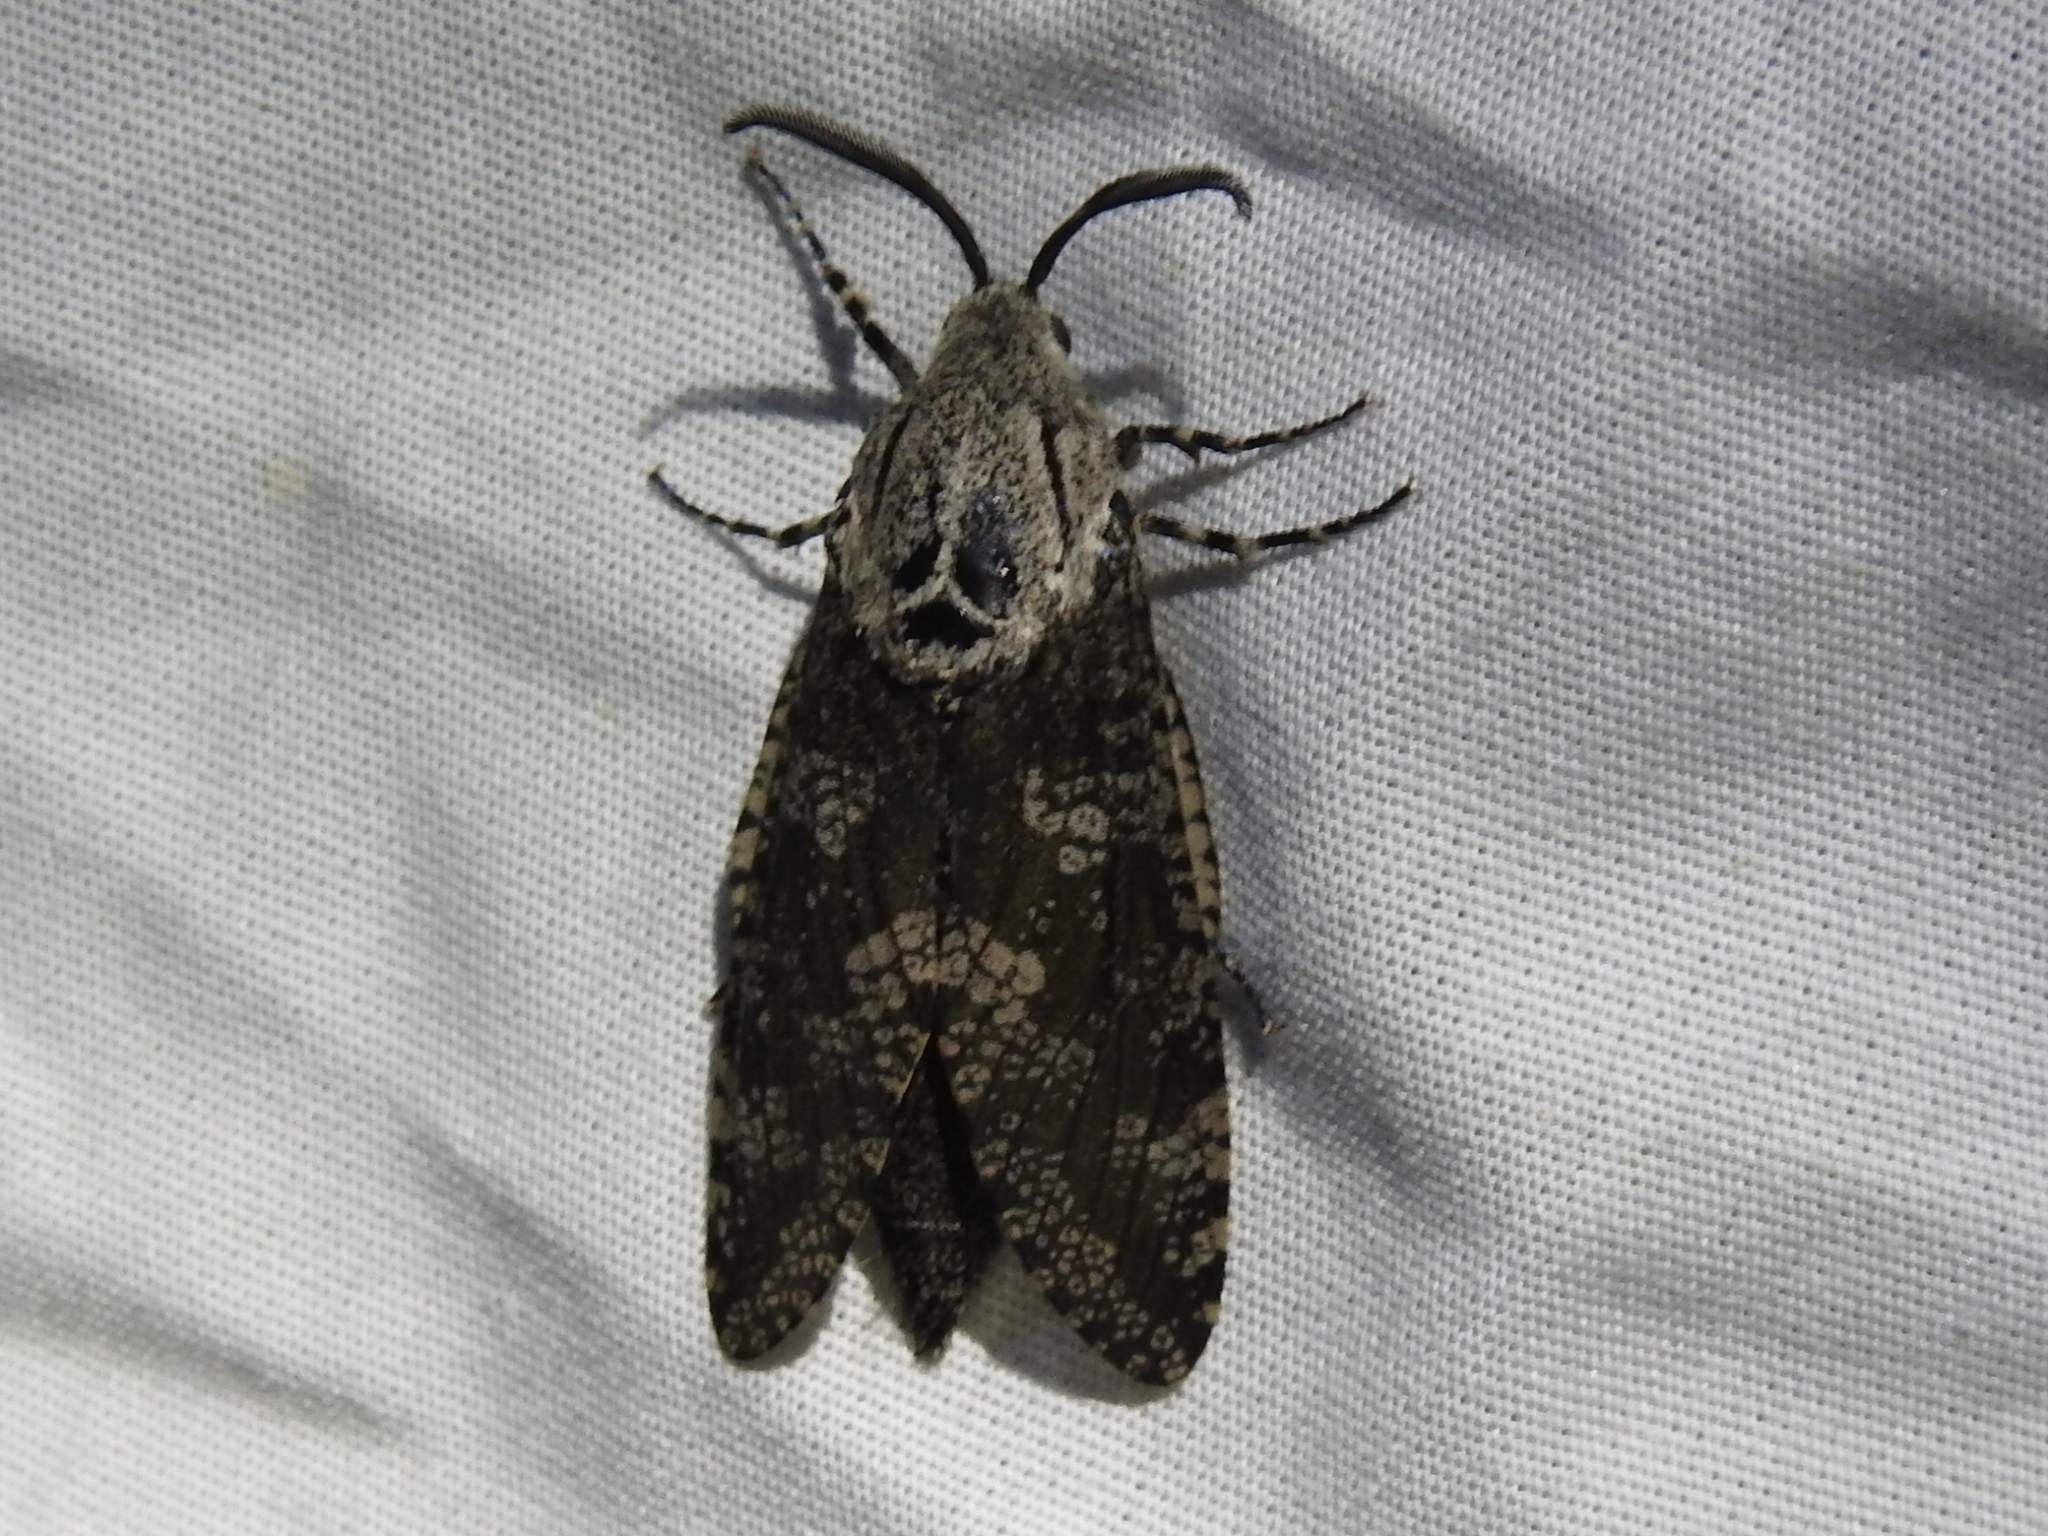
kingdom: Animalia
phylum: Arthropoda
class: Insecta
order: Lepidoptera
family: Cossidae
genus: Prionoxystus
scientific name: Prionoxystus robiniae
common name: Carpenterworm
